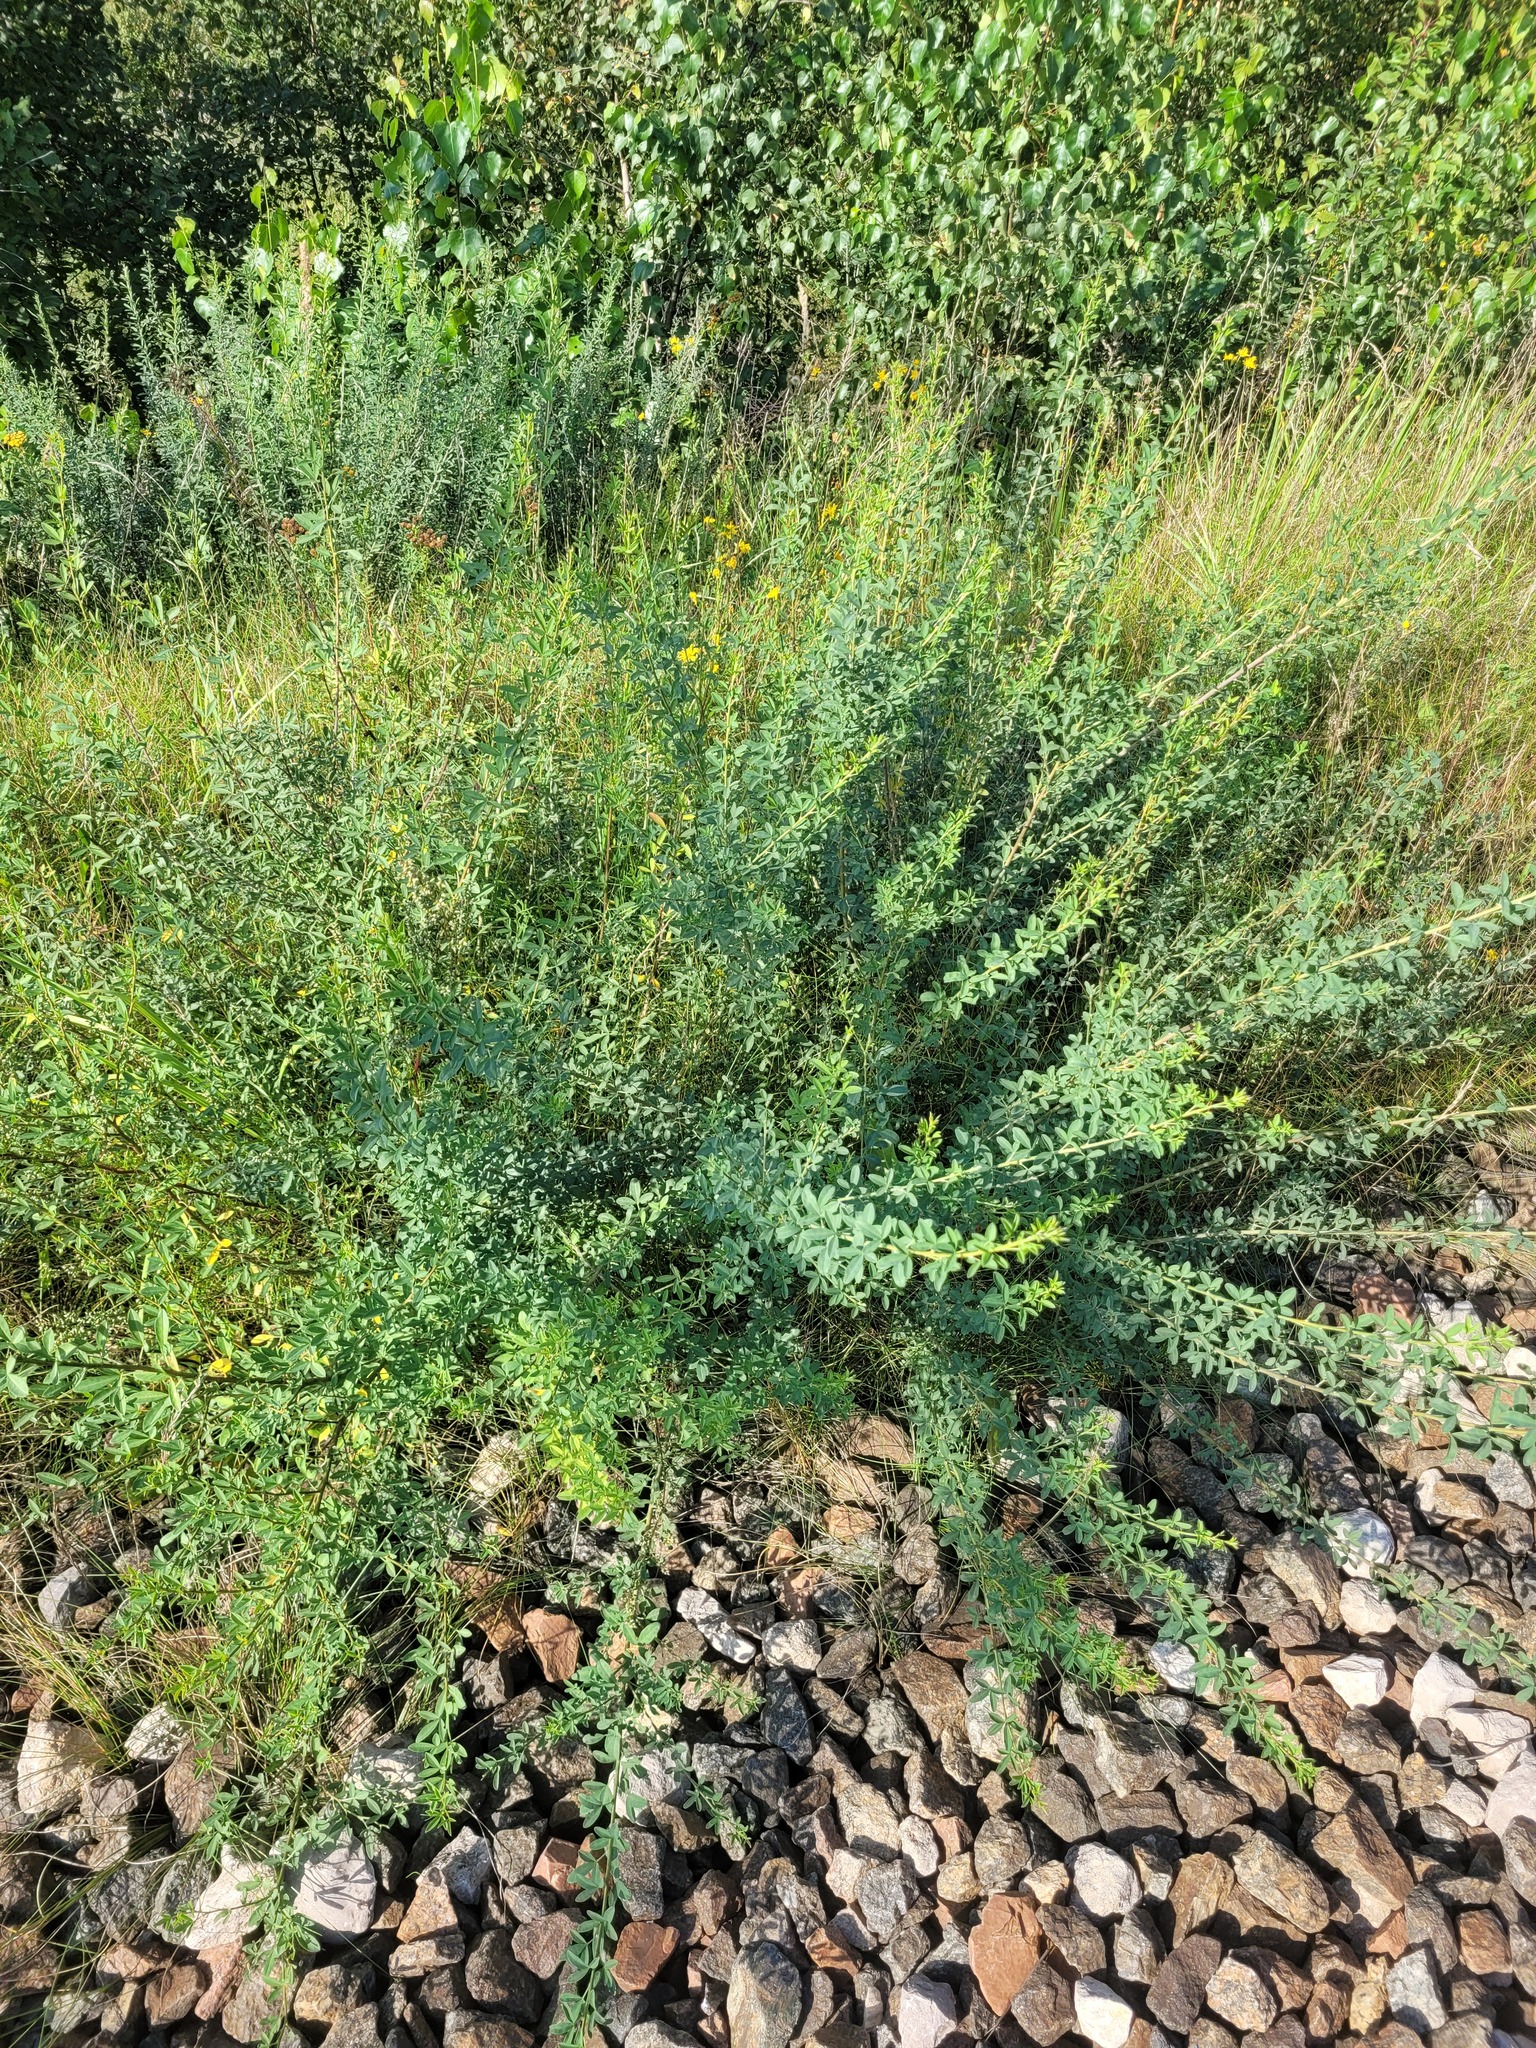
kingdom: Plantae
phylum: Tracheophyta
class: Magnoliopsida
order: Fabales
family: Fabaceae
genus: Chamaecytisus
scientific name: Chamaecytisus ruthenicus
